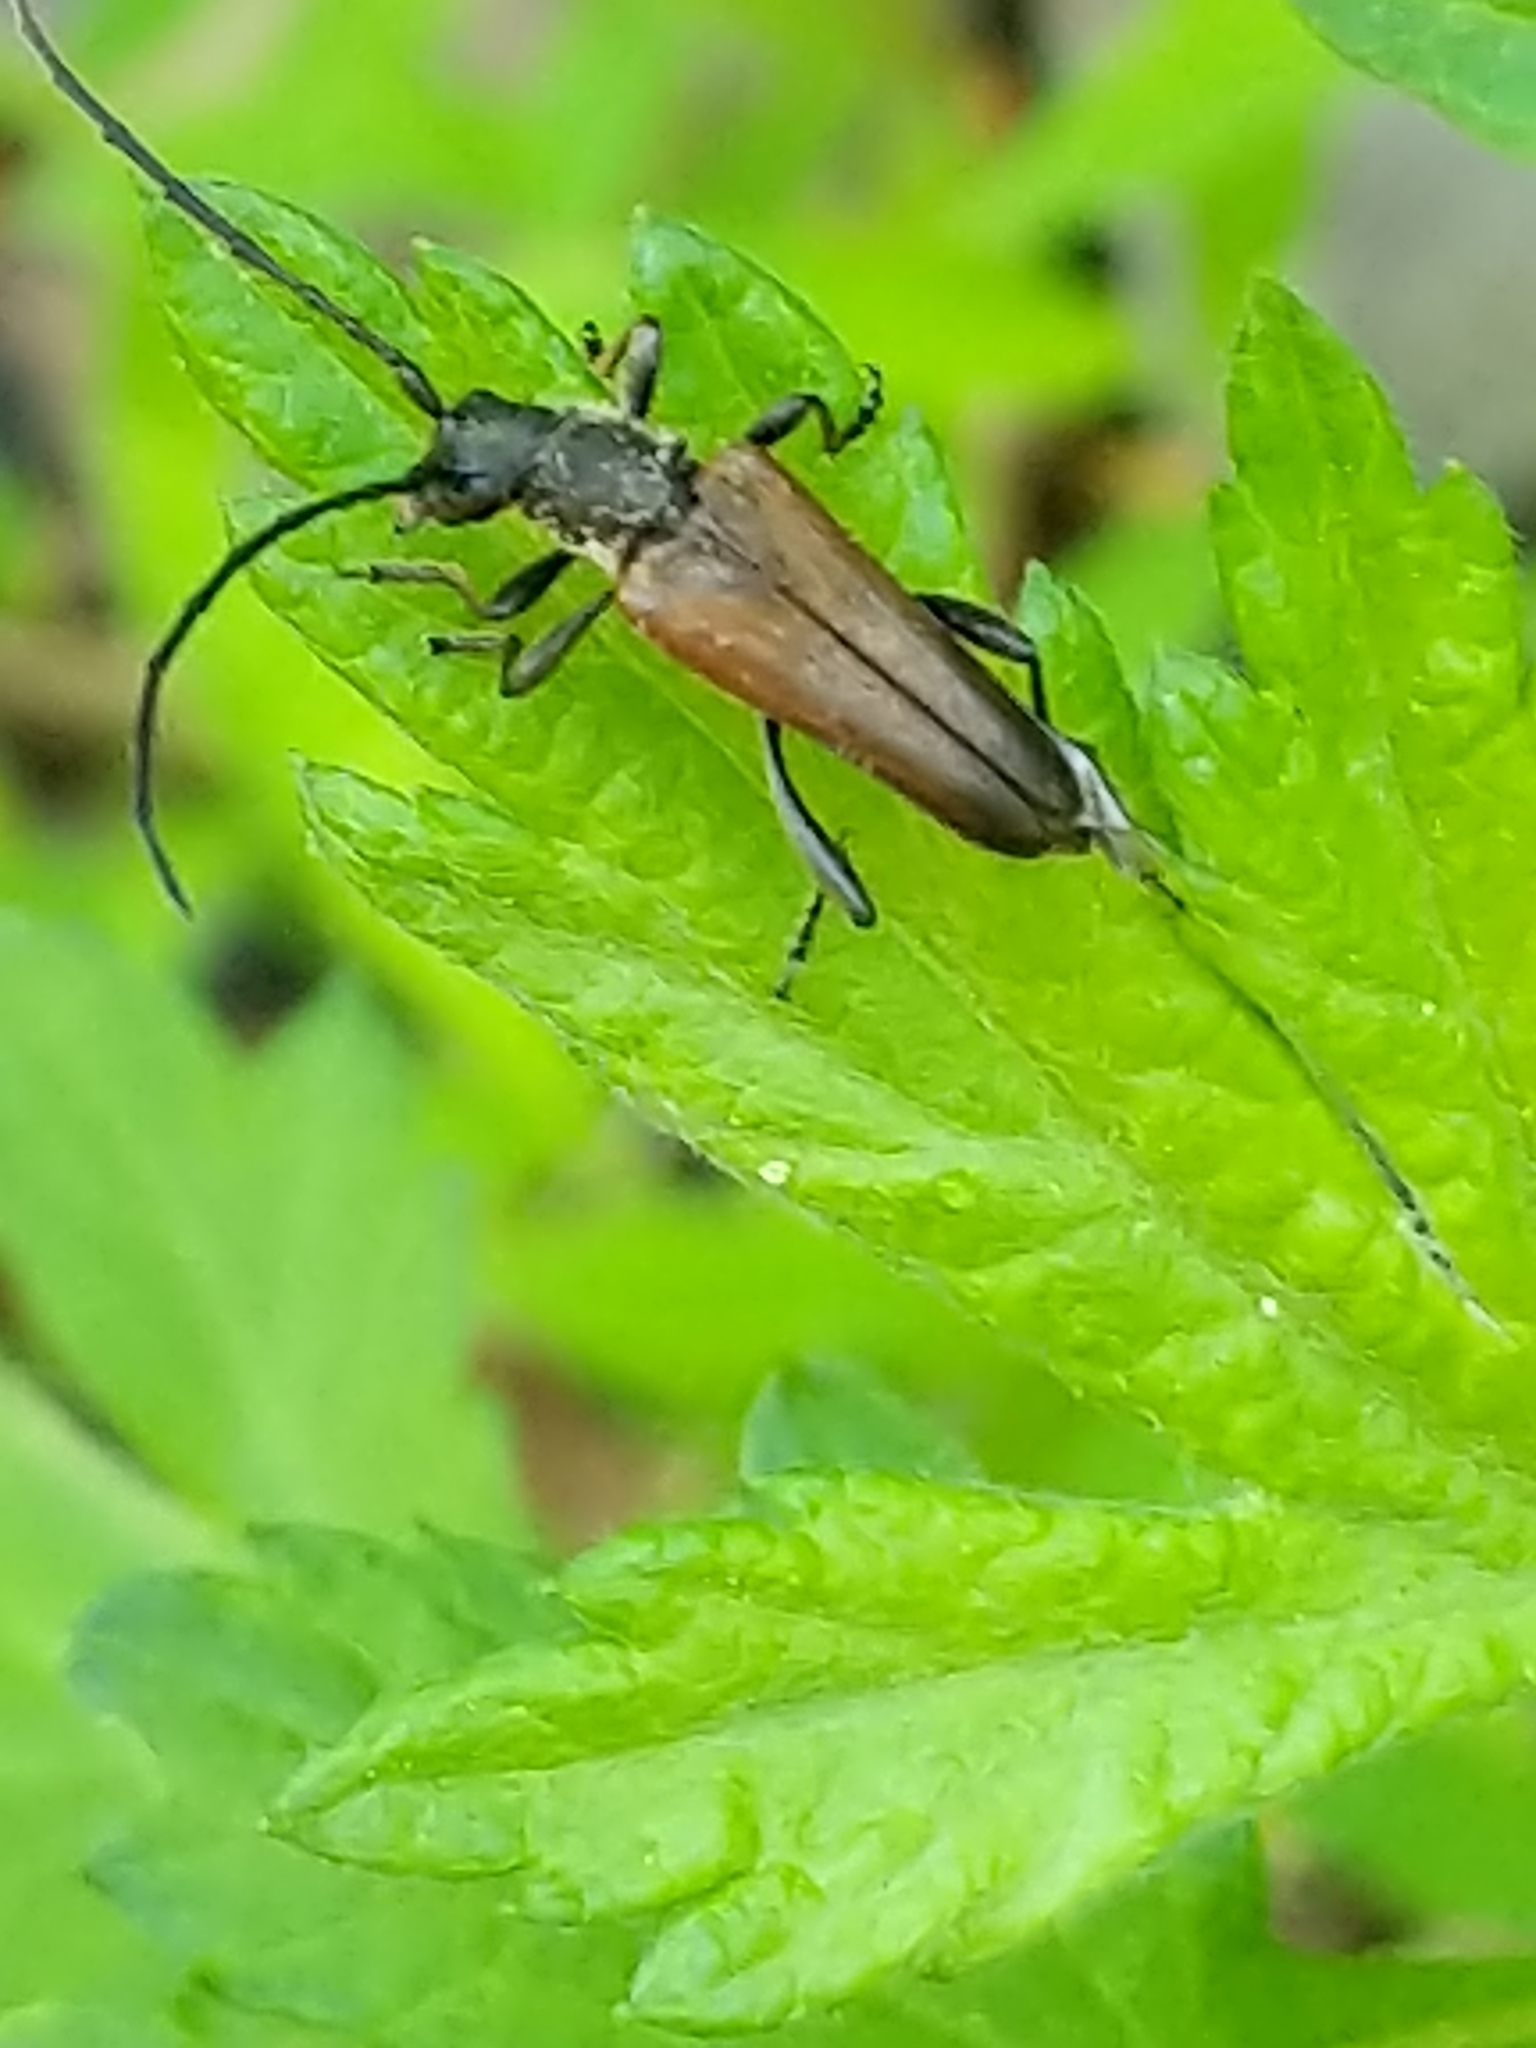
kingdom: Animalia
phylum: Arthropoda
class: Insecta
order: Coleoptera
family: Cerambycidae
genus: Trachysida
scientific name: Trachysida mutabilis
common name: Changeable flower longhorn
